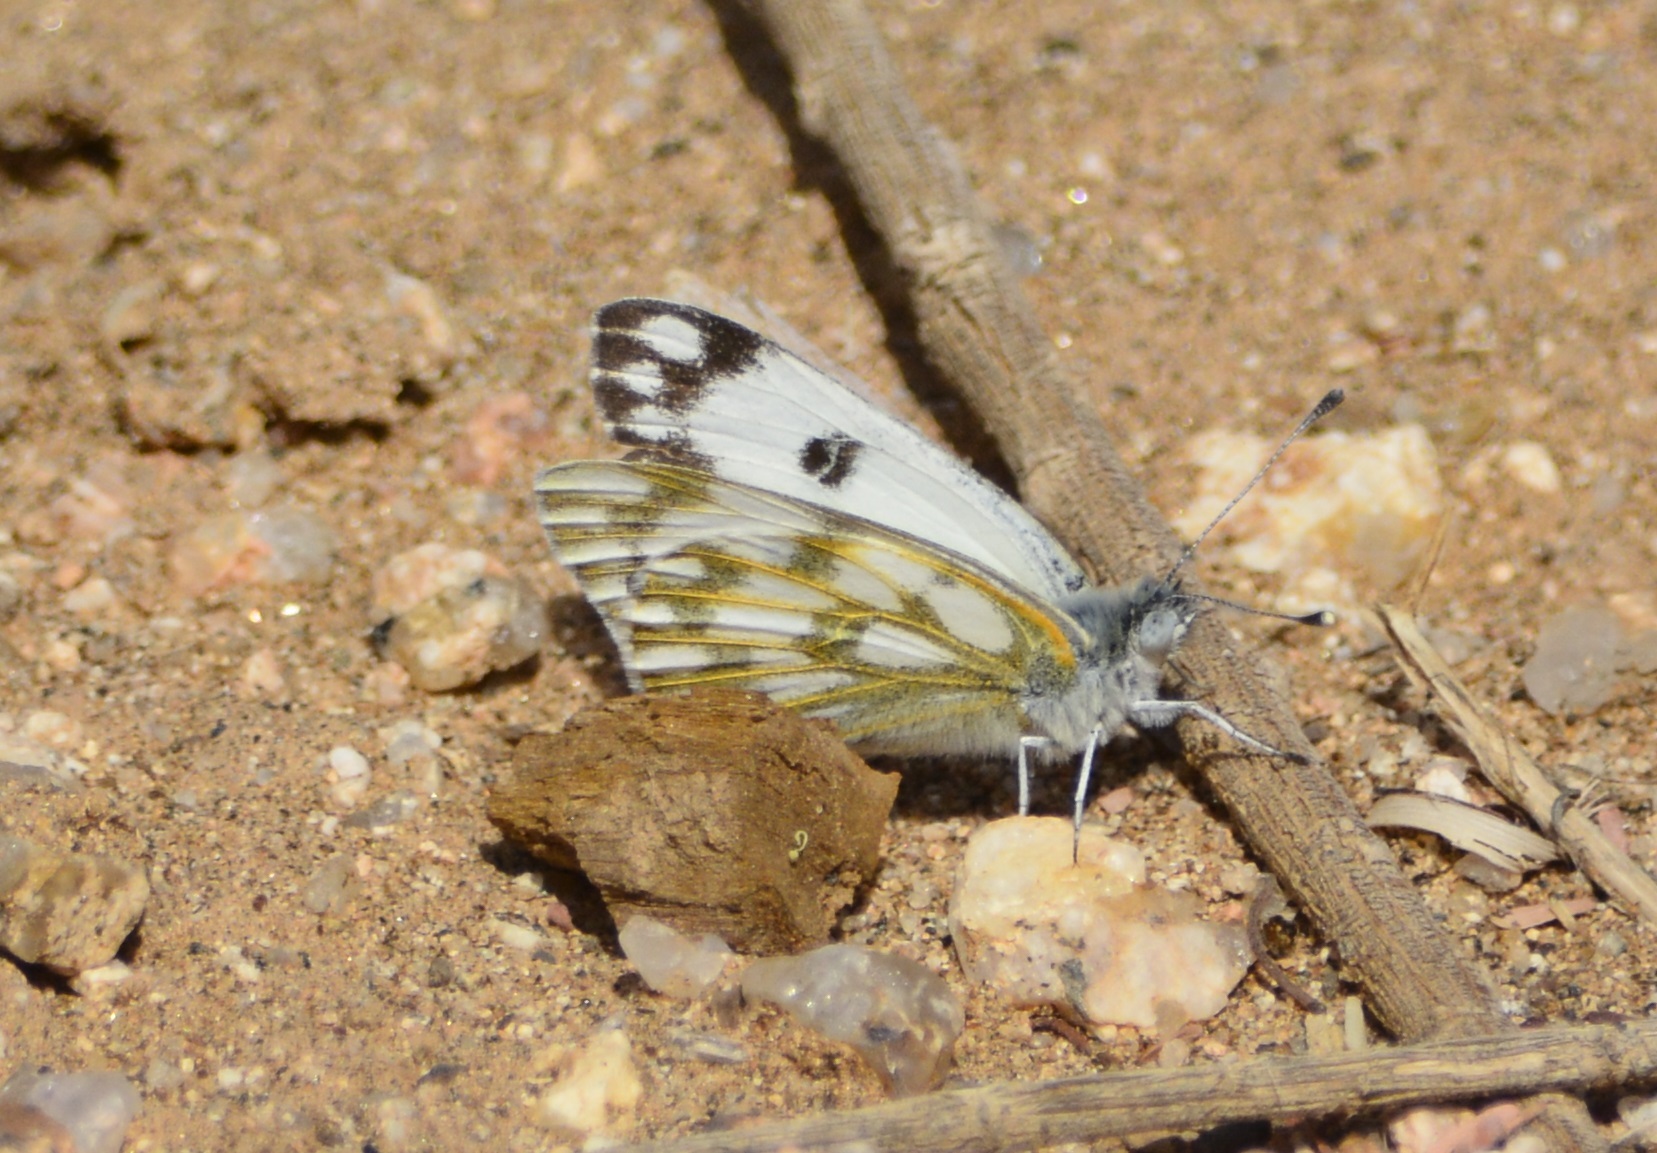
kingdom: Animalia
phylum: Arthropoda
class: Insecta
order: Lepidoptera
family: Pieridae
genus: Pontia
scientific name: Pontia glauconome
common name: Desert bath white
